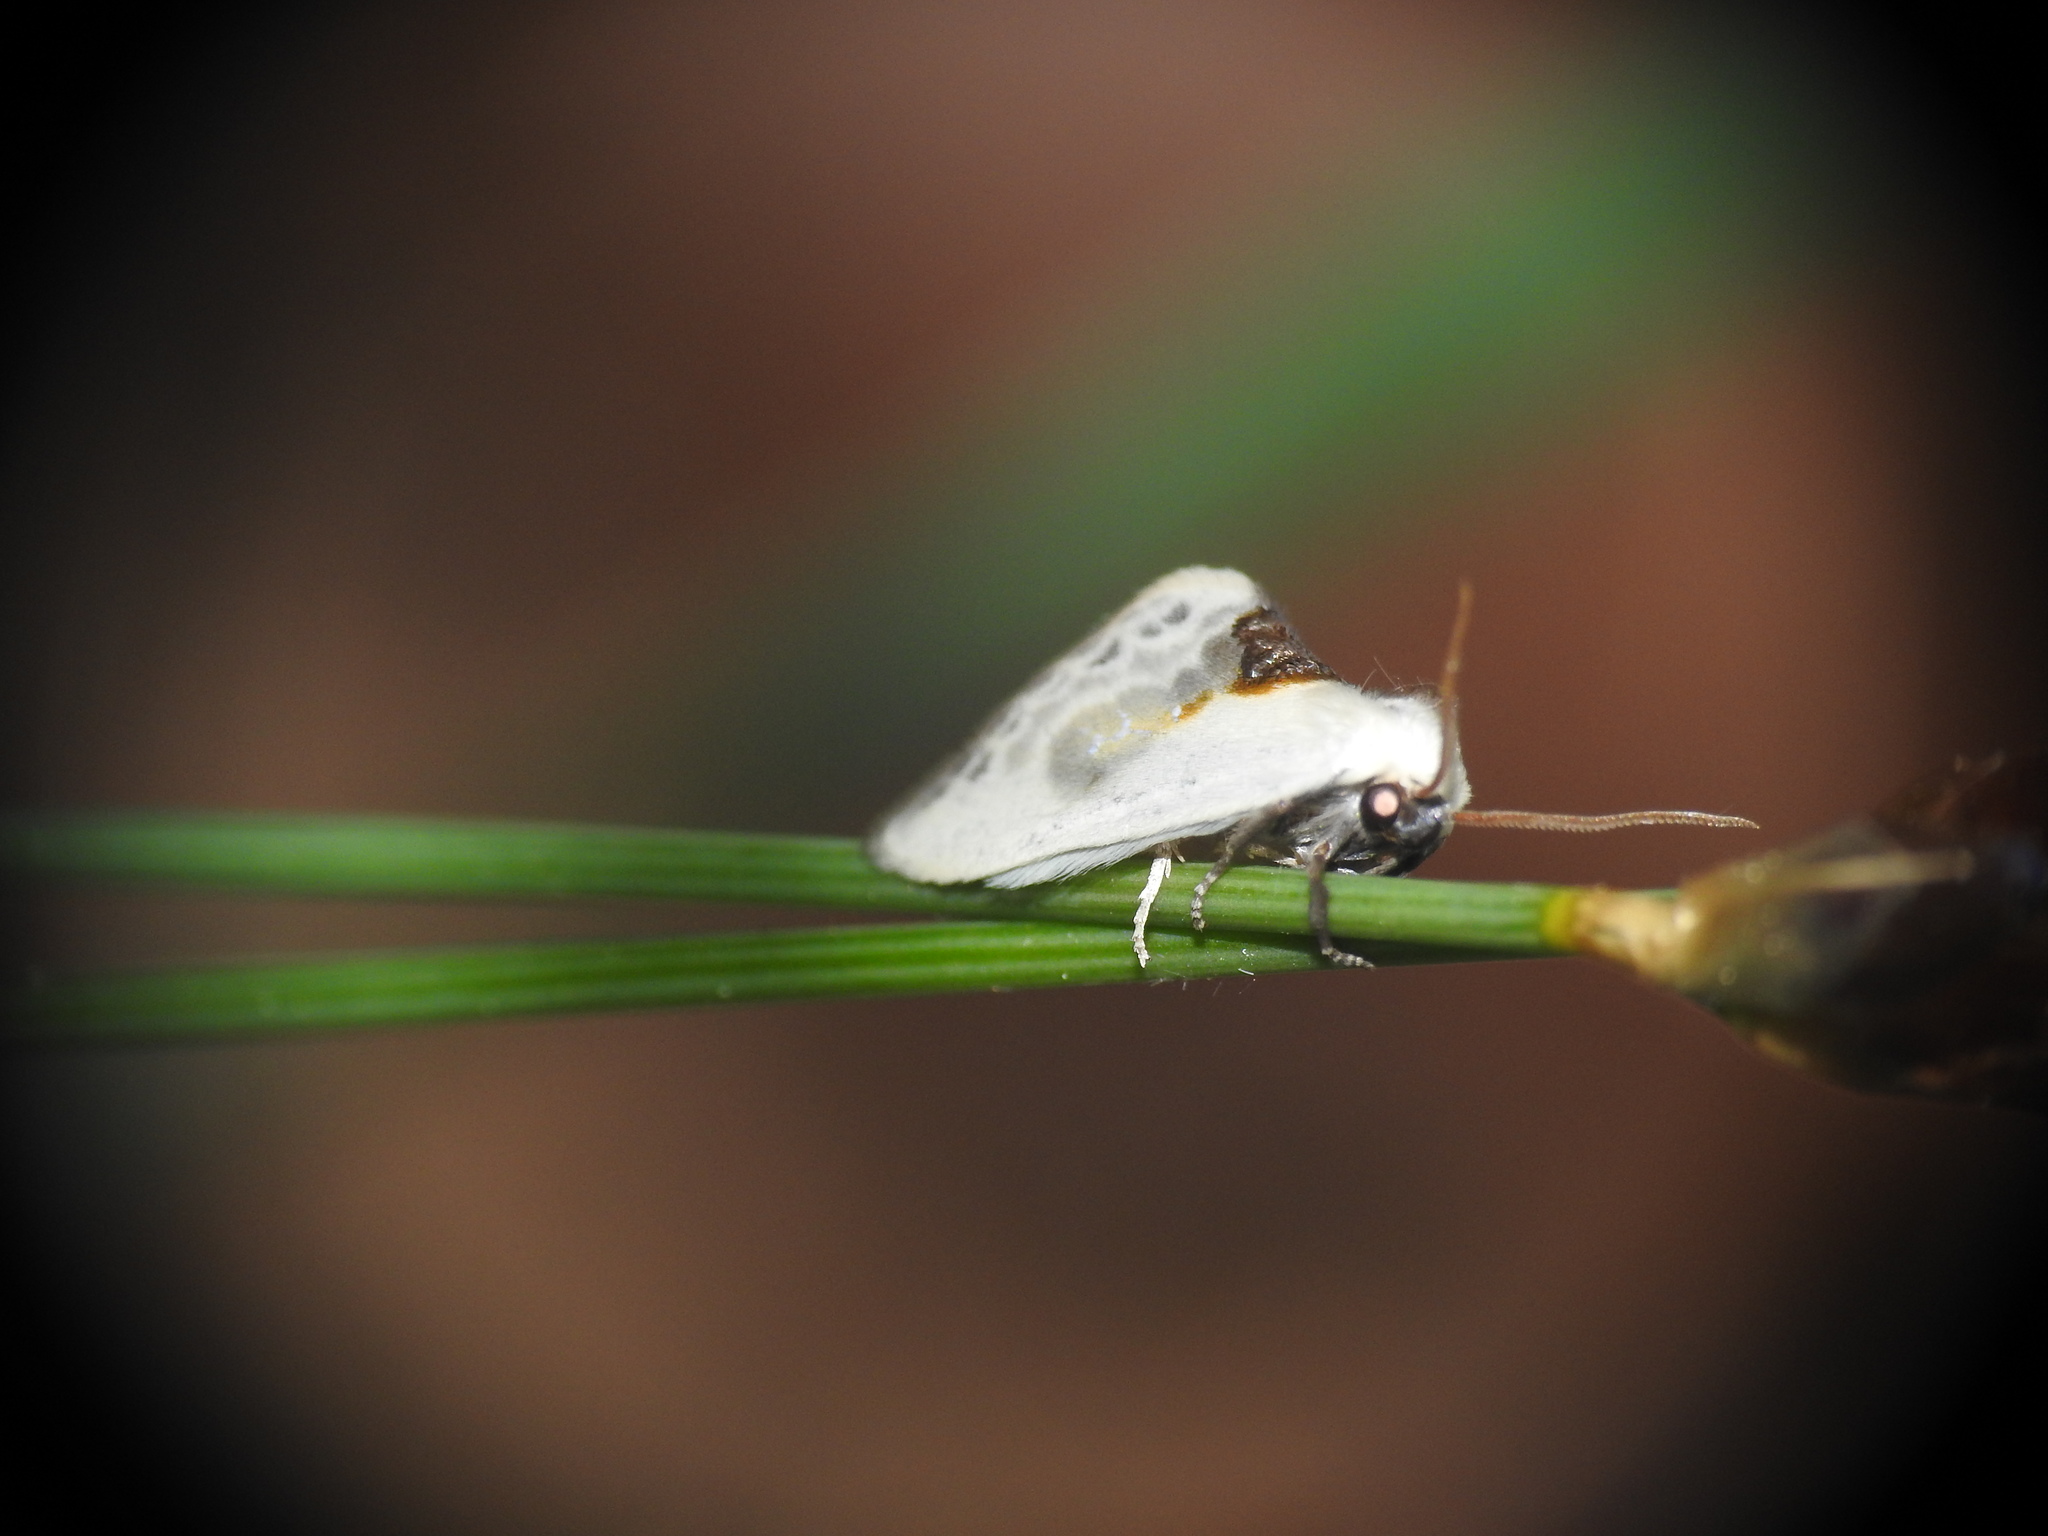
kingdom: Animalia
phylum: Arthropoda
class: Insecta
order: Lepidoptera
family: Drepanidae
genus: Cilix
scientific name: Cilix glaucata
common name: Chinese character
